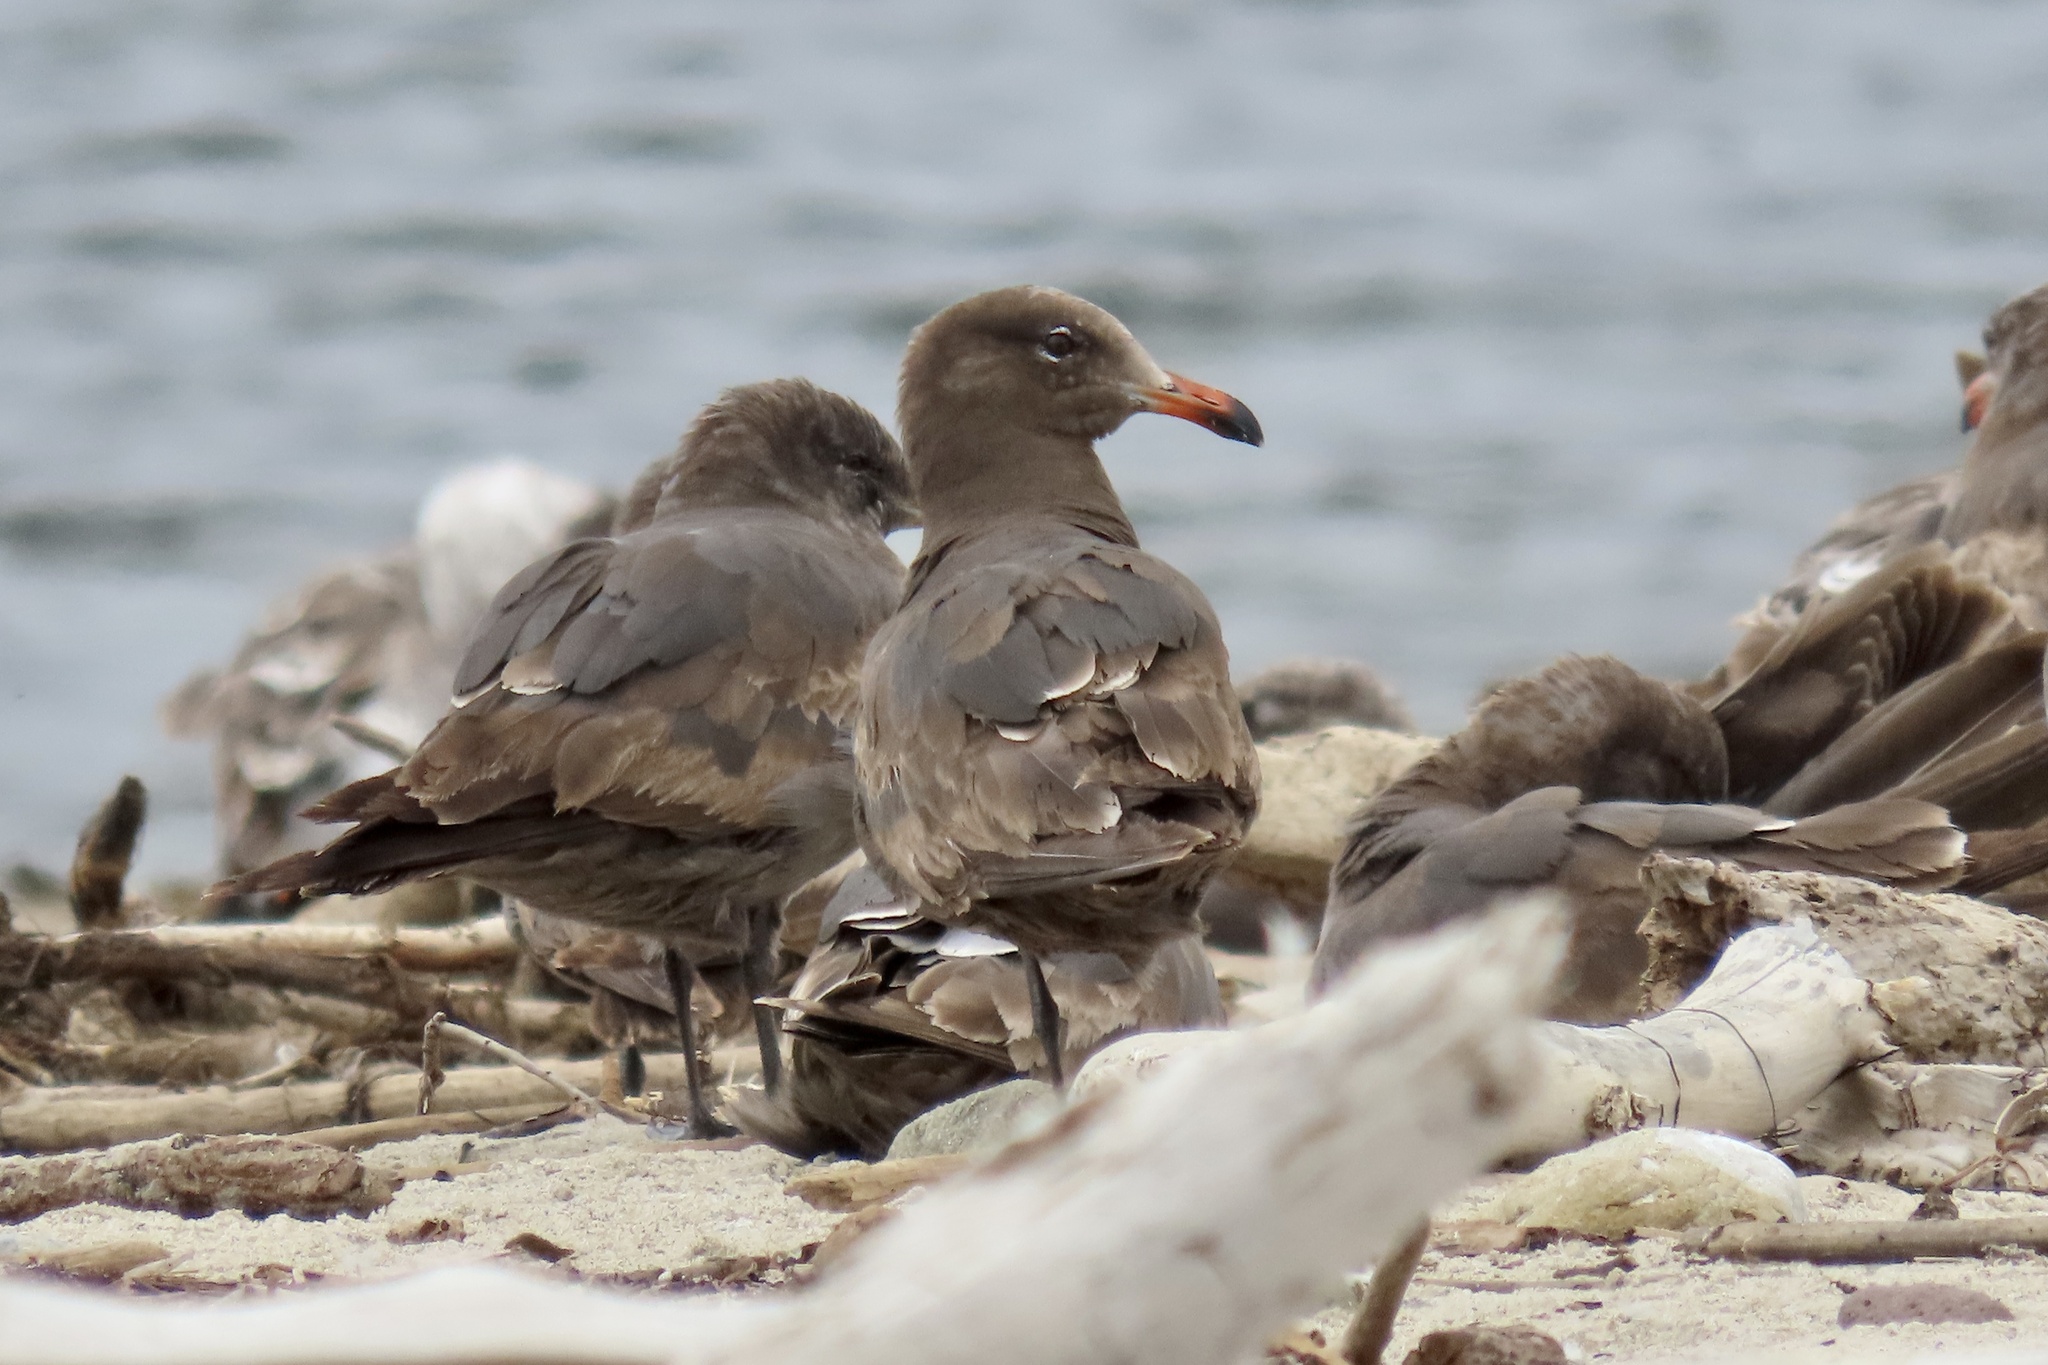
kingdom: Animalia
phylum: Chordata
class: Aves
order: Charadriiformes
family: Laridae
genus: Larus
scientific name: Larus heermanni
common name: Heermann's gull
